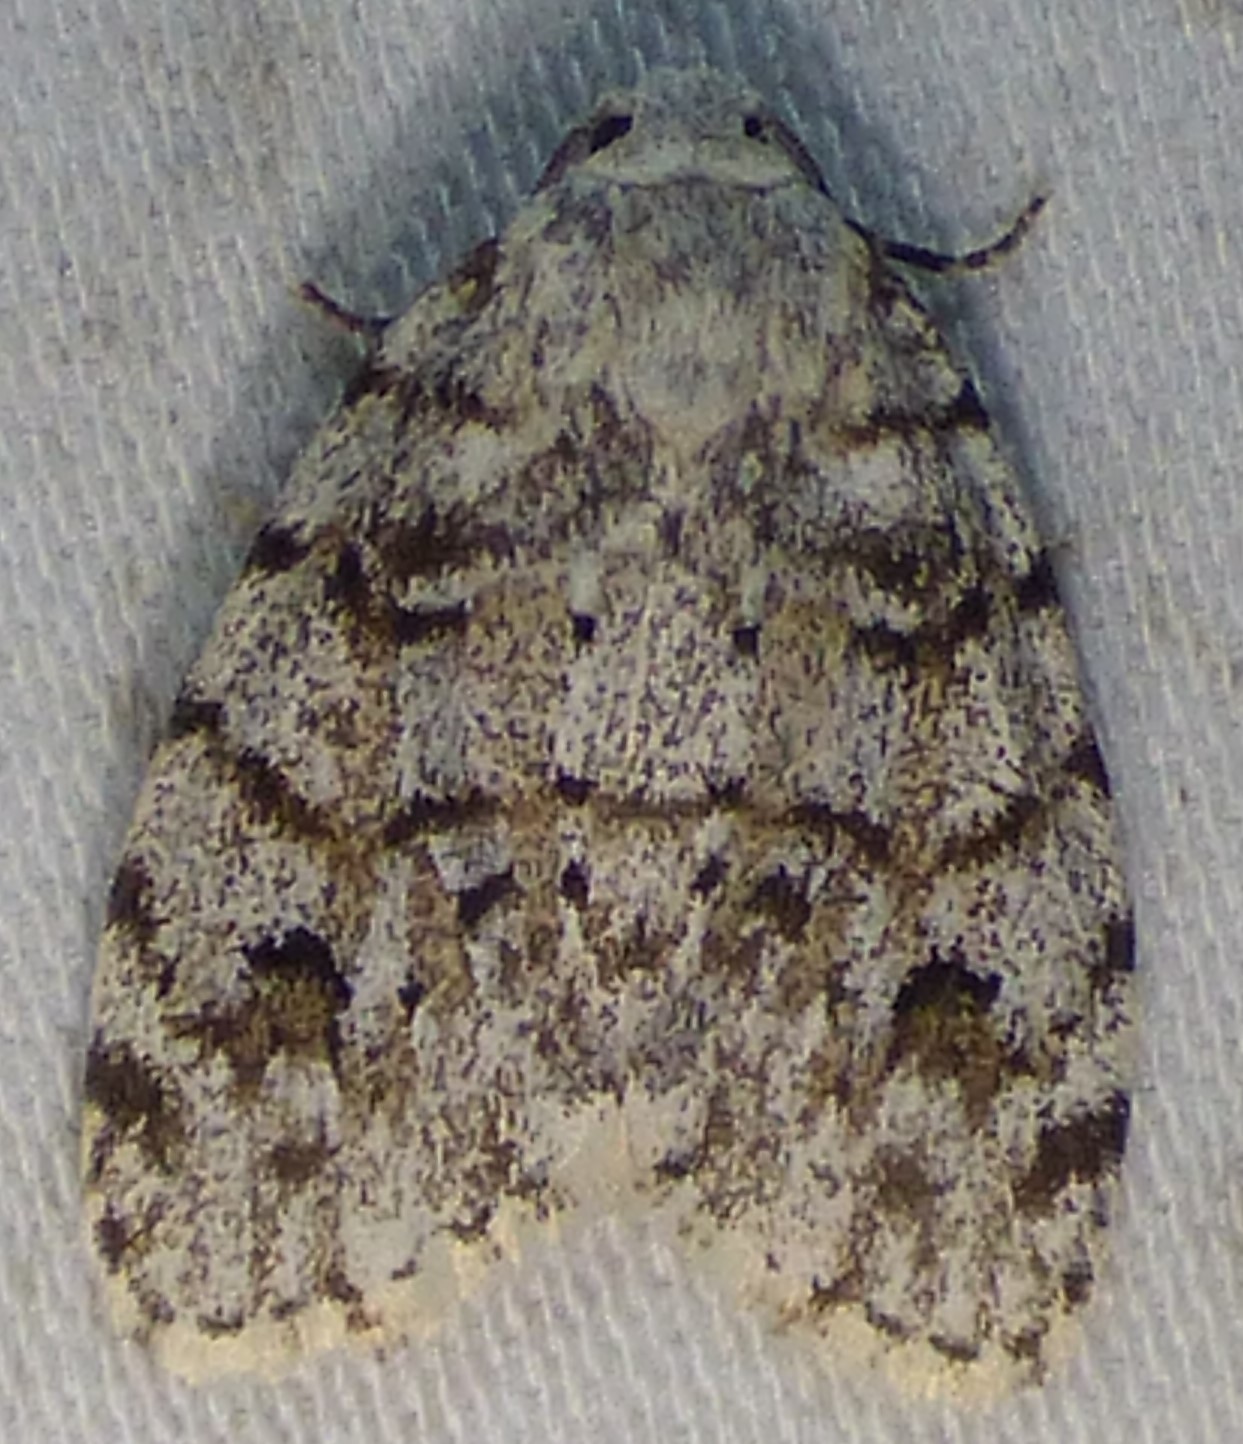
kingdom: Animalia
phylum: Arthropoda
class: Insecta
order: Lepidoptera
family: Erebidae
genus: Clemensia
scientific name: Clemensia ochreata
